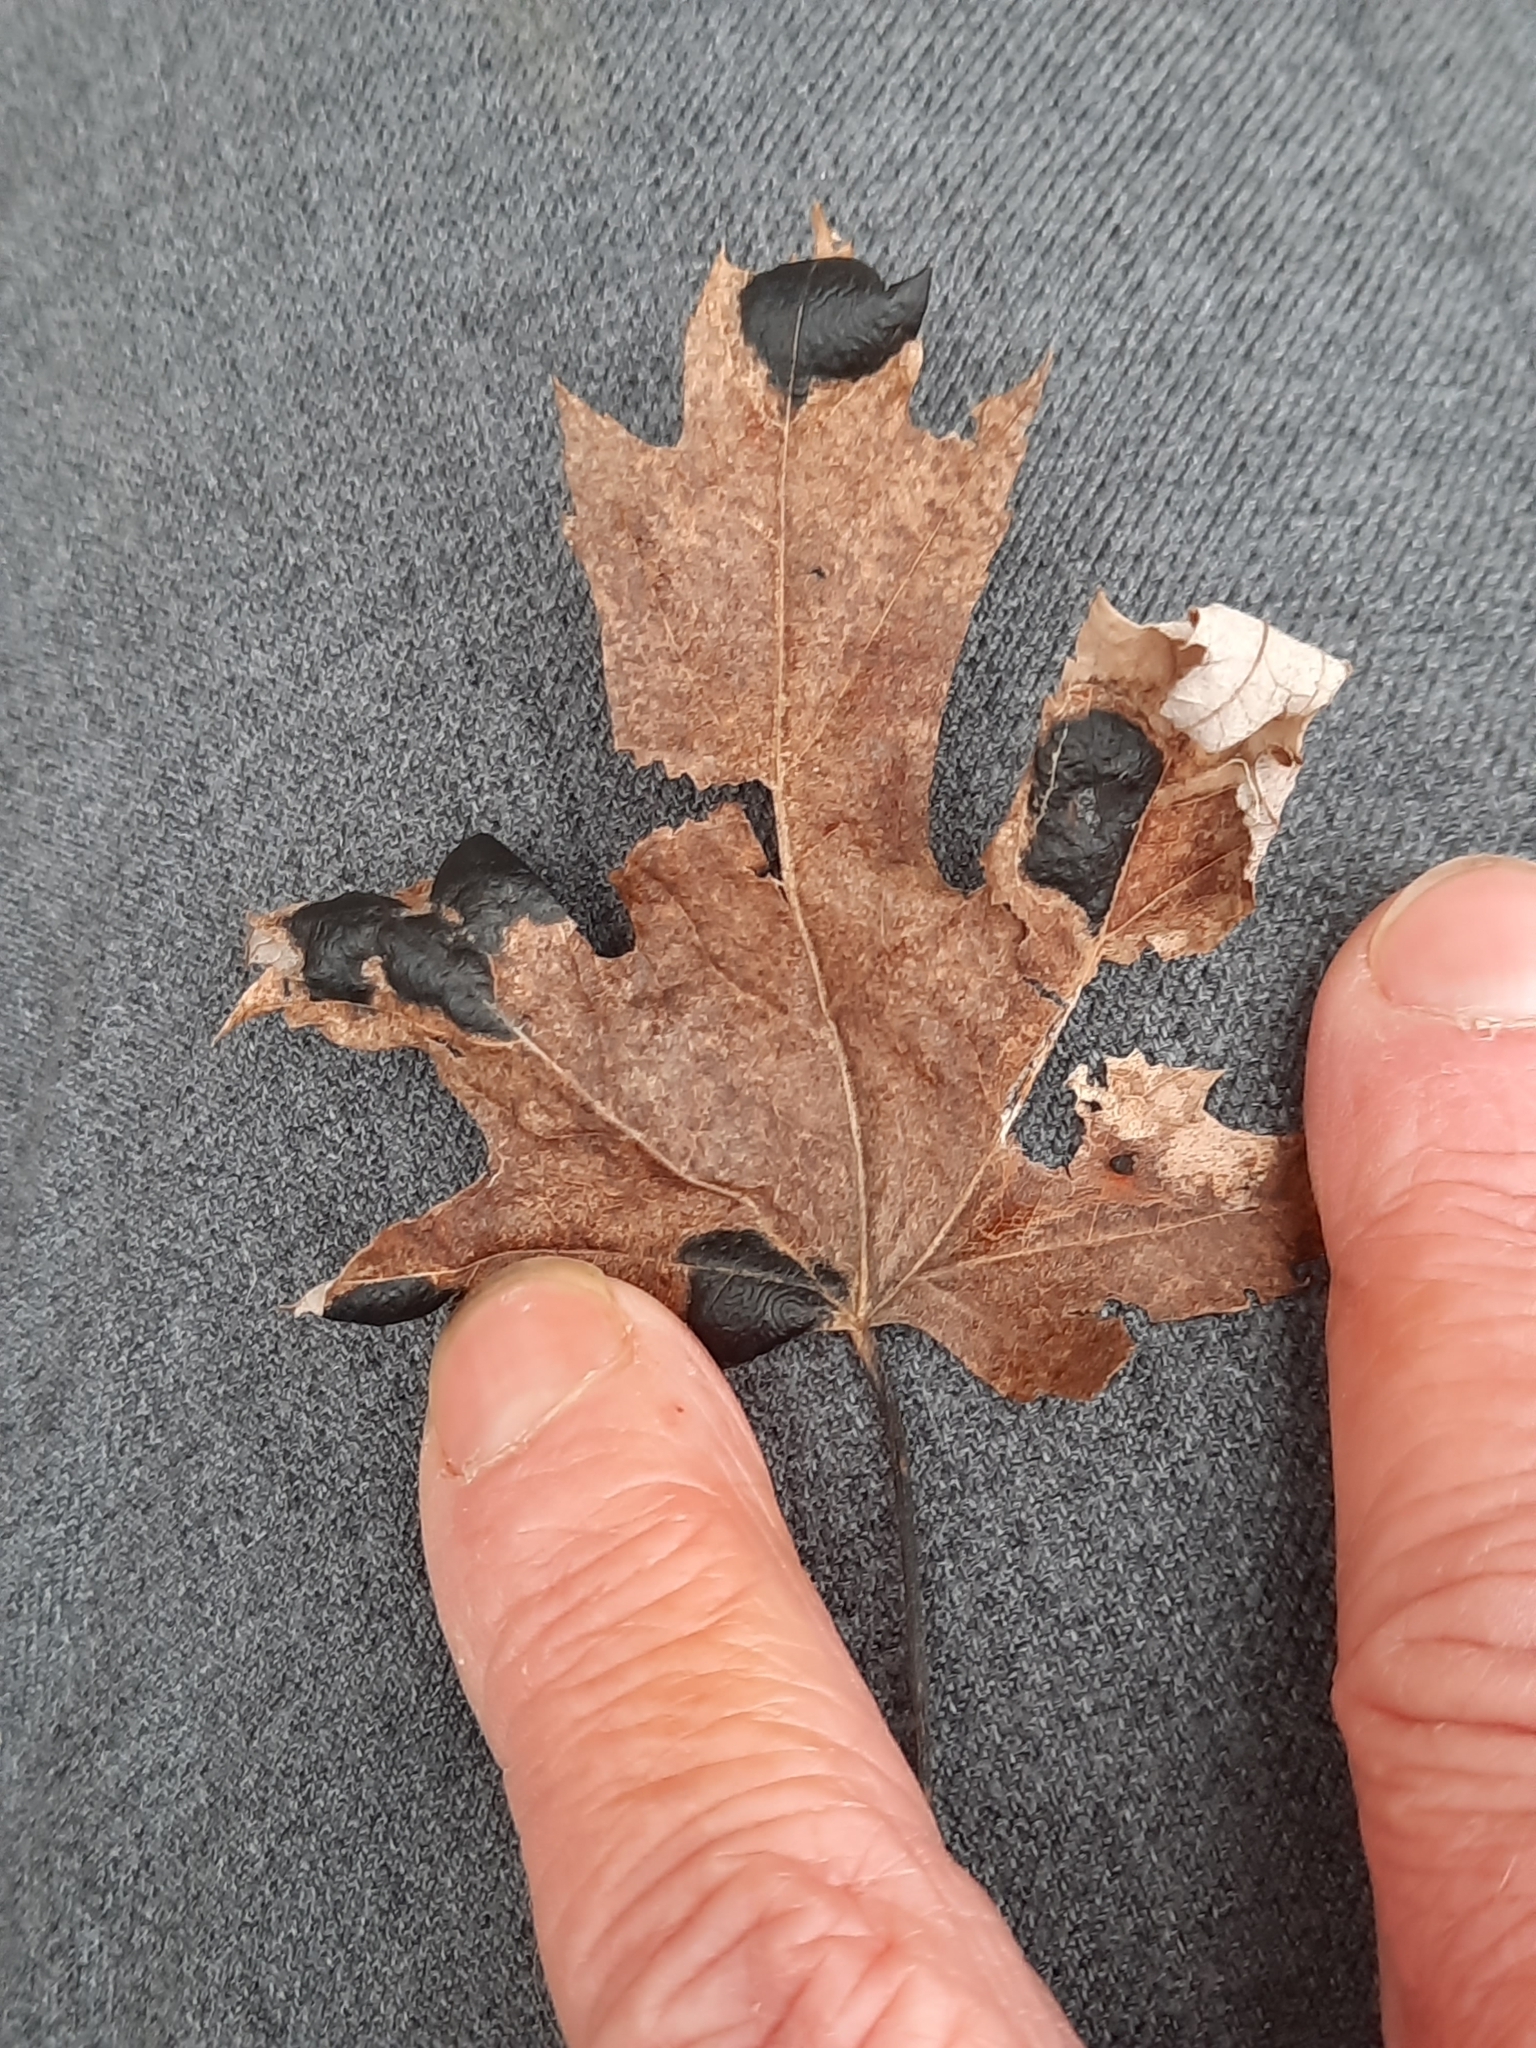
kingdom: Plantae
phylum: Tracheophyta
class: Magnoliopsida
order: Sapindales
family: Sapindaceae
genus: Acer
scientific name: Acer saccharinum
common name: Silver maple
